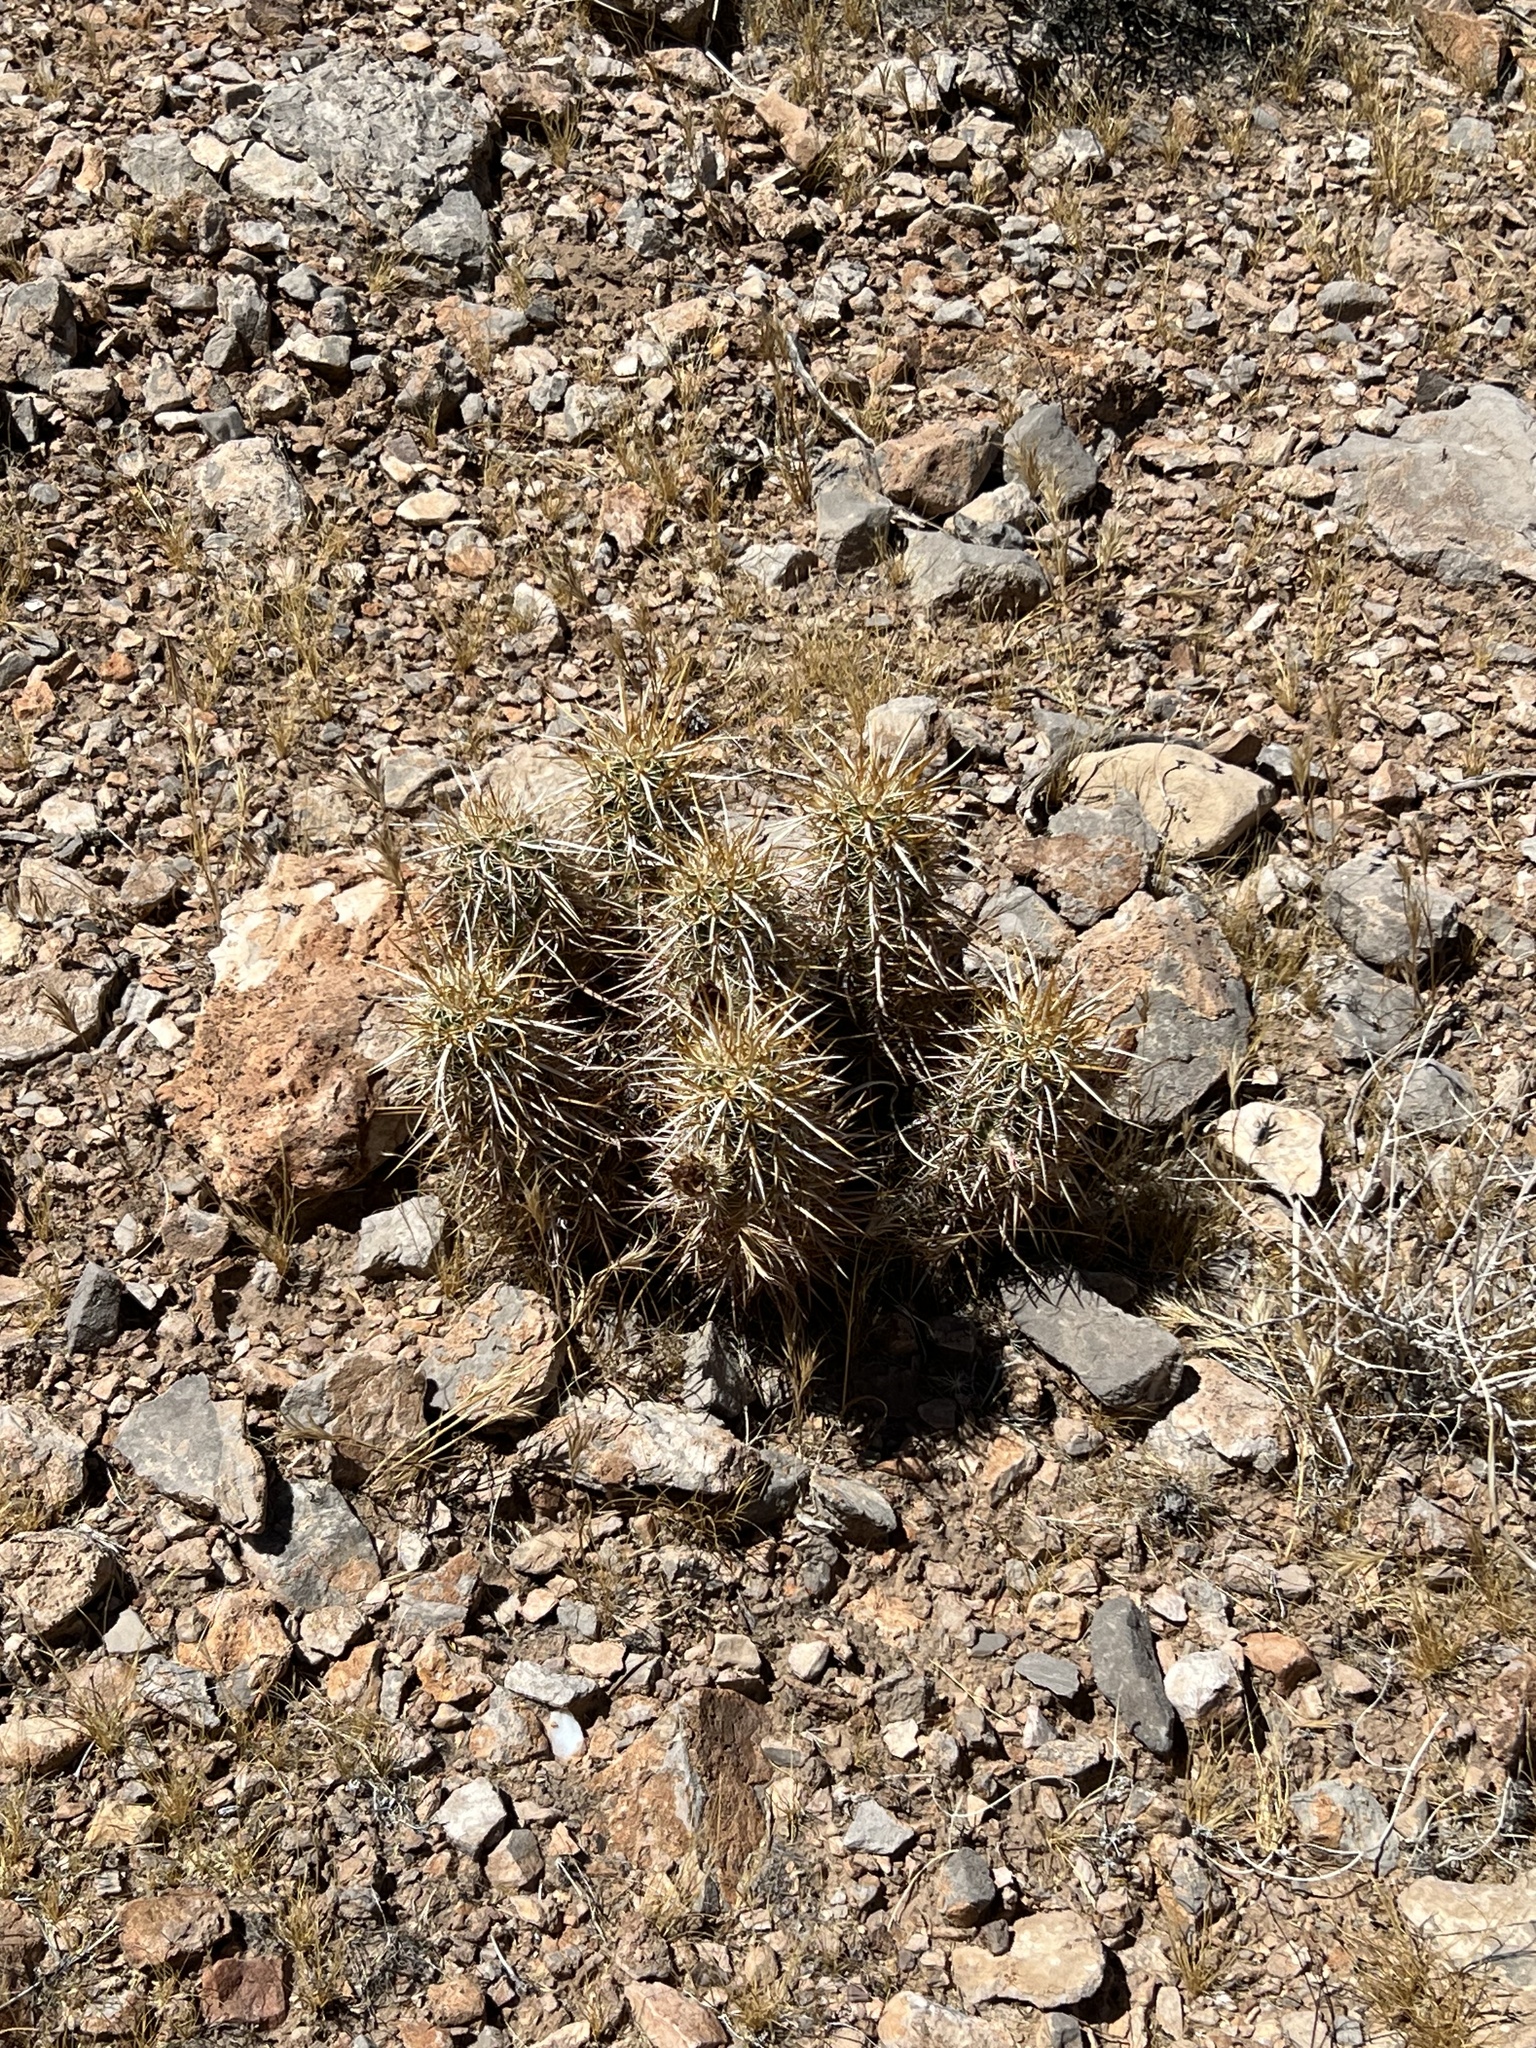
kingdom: Plantae
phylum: Tracheophyta
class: Magnoliopsida
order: Caryophyllales
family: Cactaceae
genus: Echinocereus
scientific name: Echinocereus engelmannii
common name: Engelmann's hedgehog cactus
